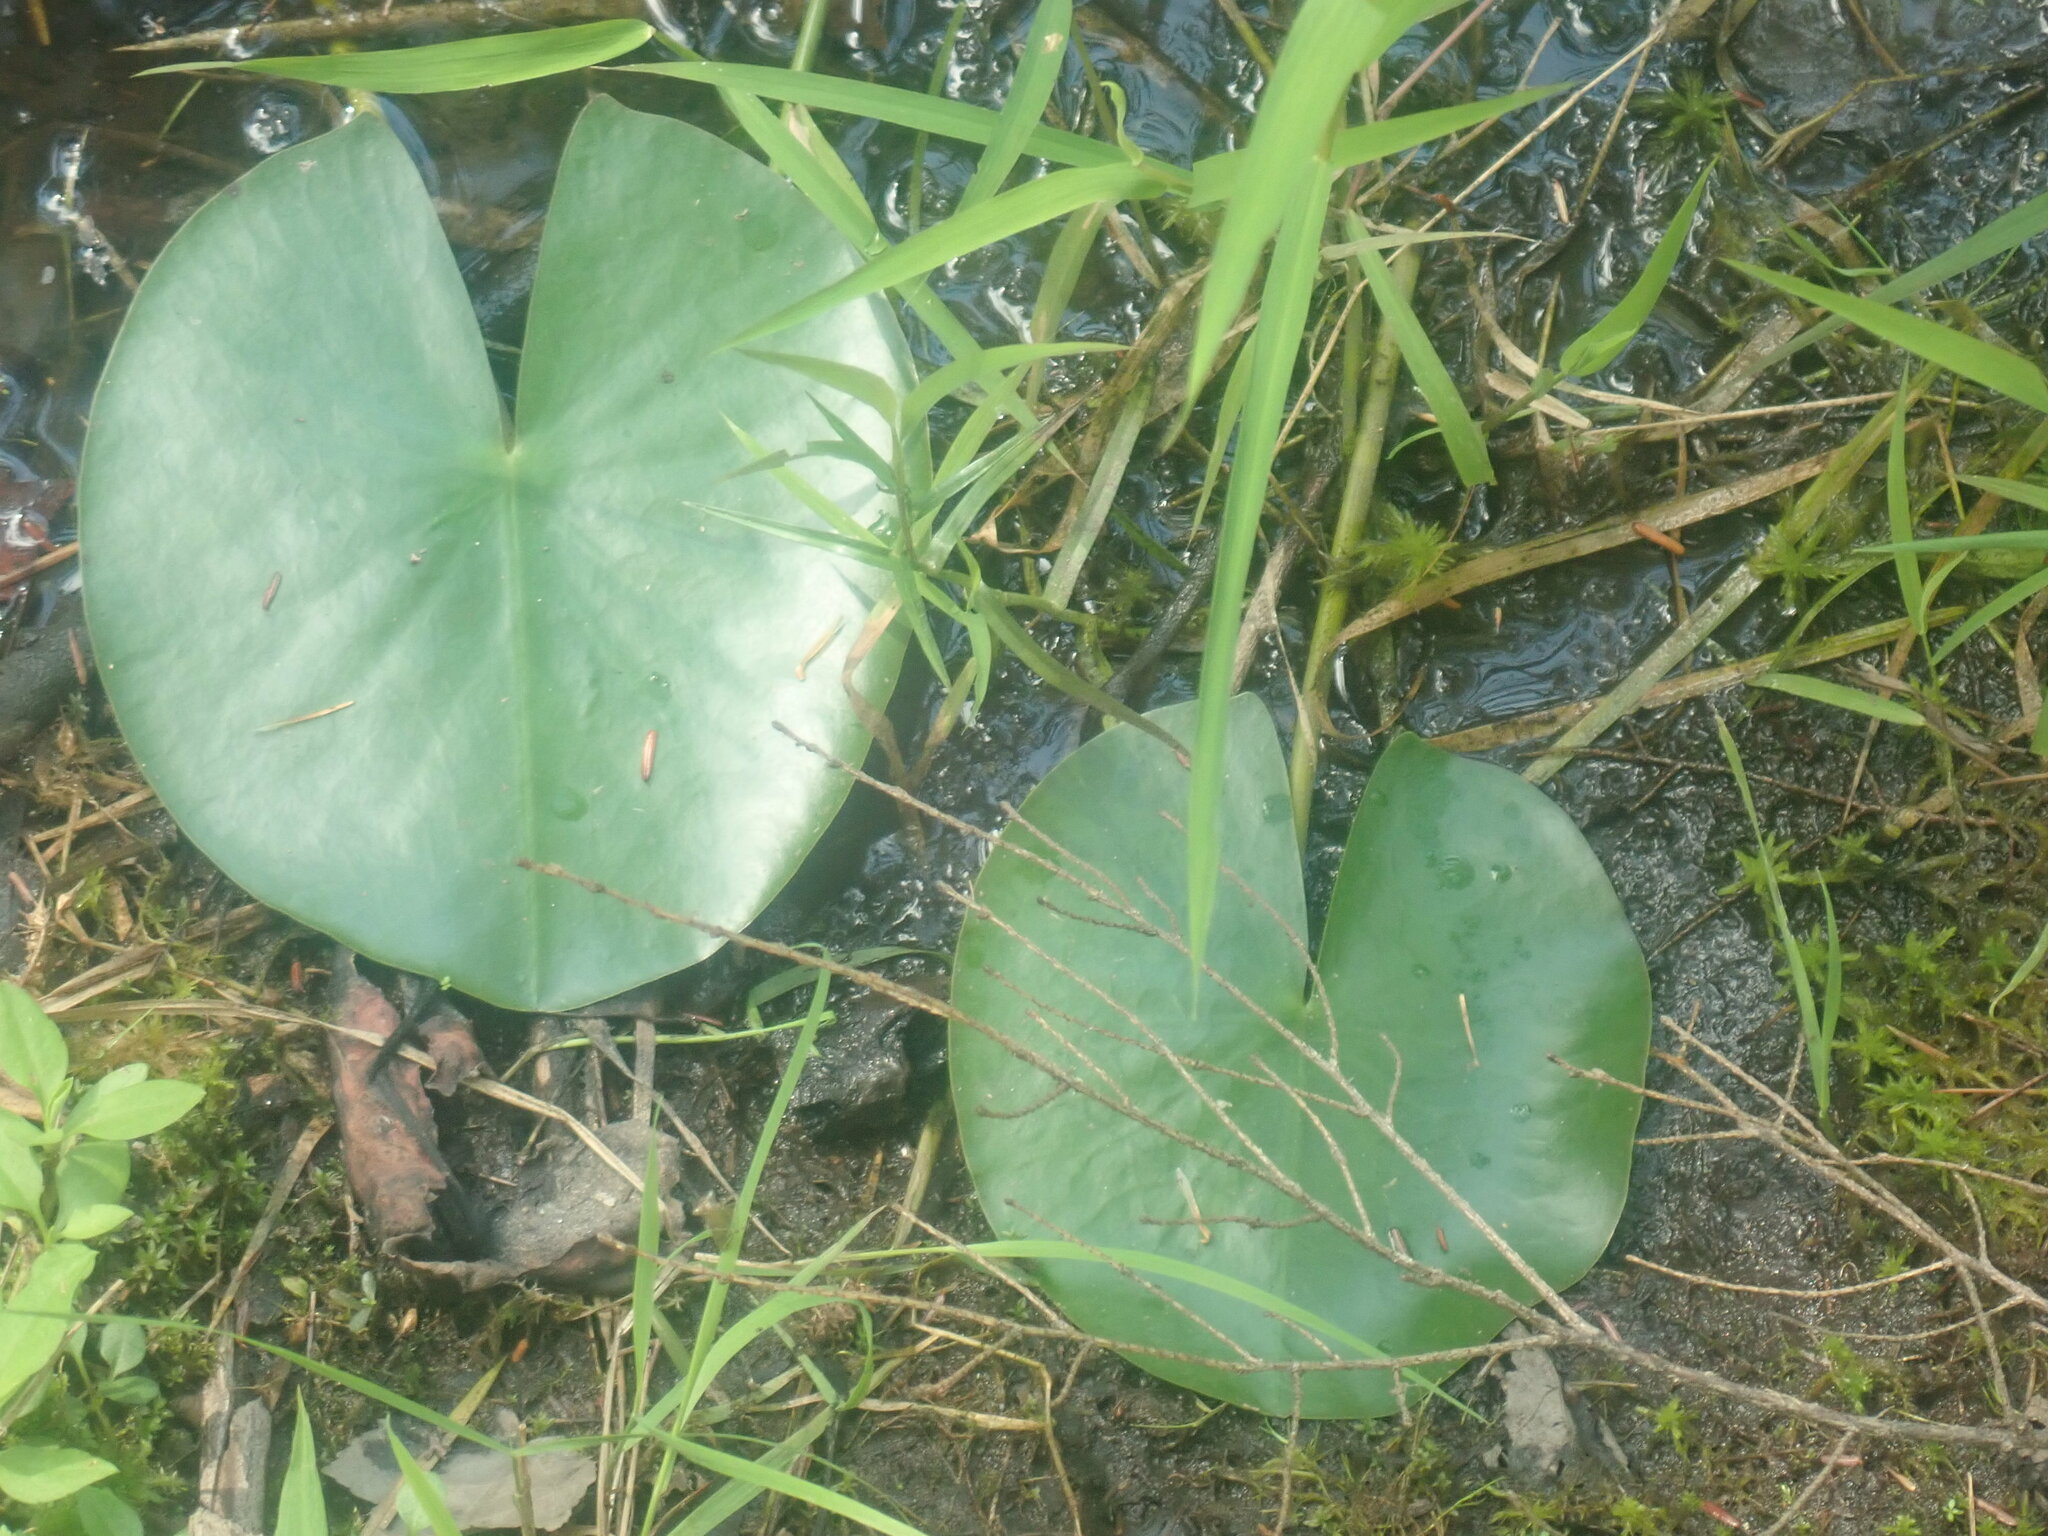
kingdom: Plantae
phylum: Tracheophyta
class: Magnoliopsida
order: Nymphaeales
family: Nymphaeaceae
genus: Nymphaea
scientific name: Nymphaea odorata
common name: Fragrant water-lily
